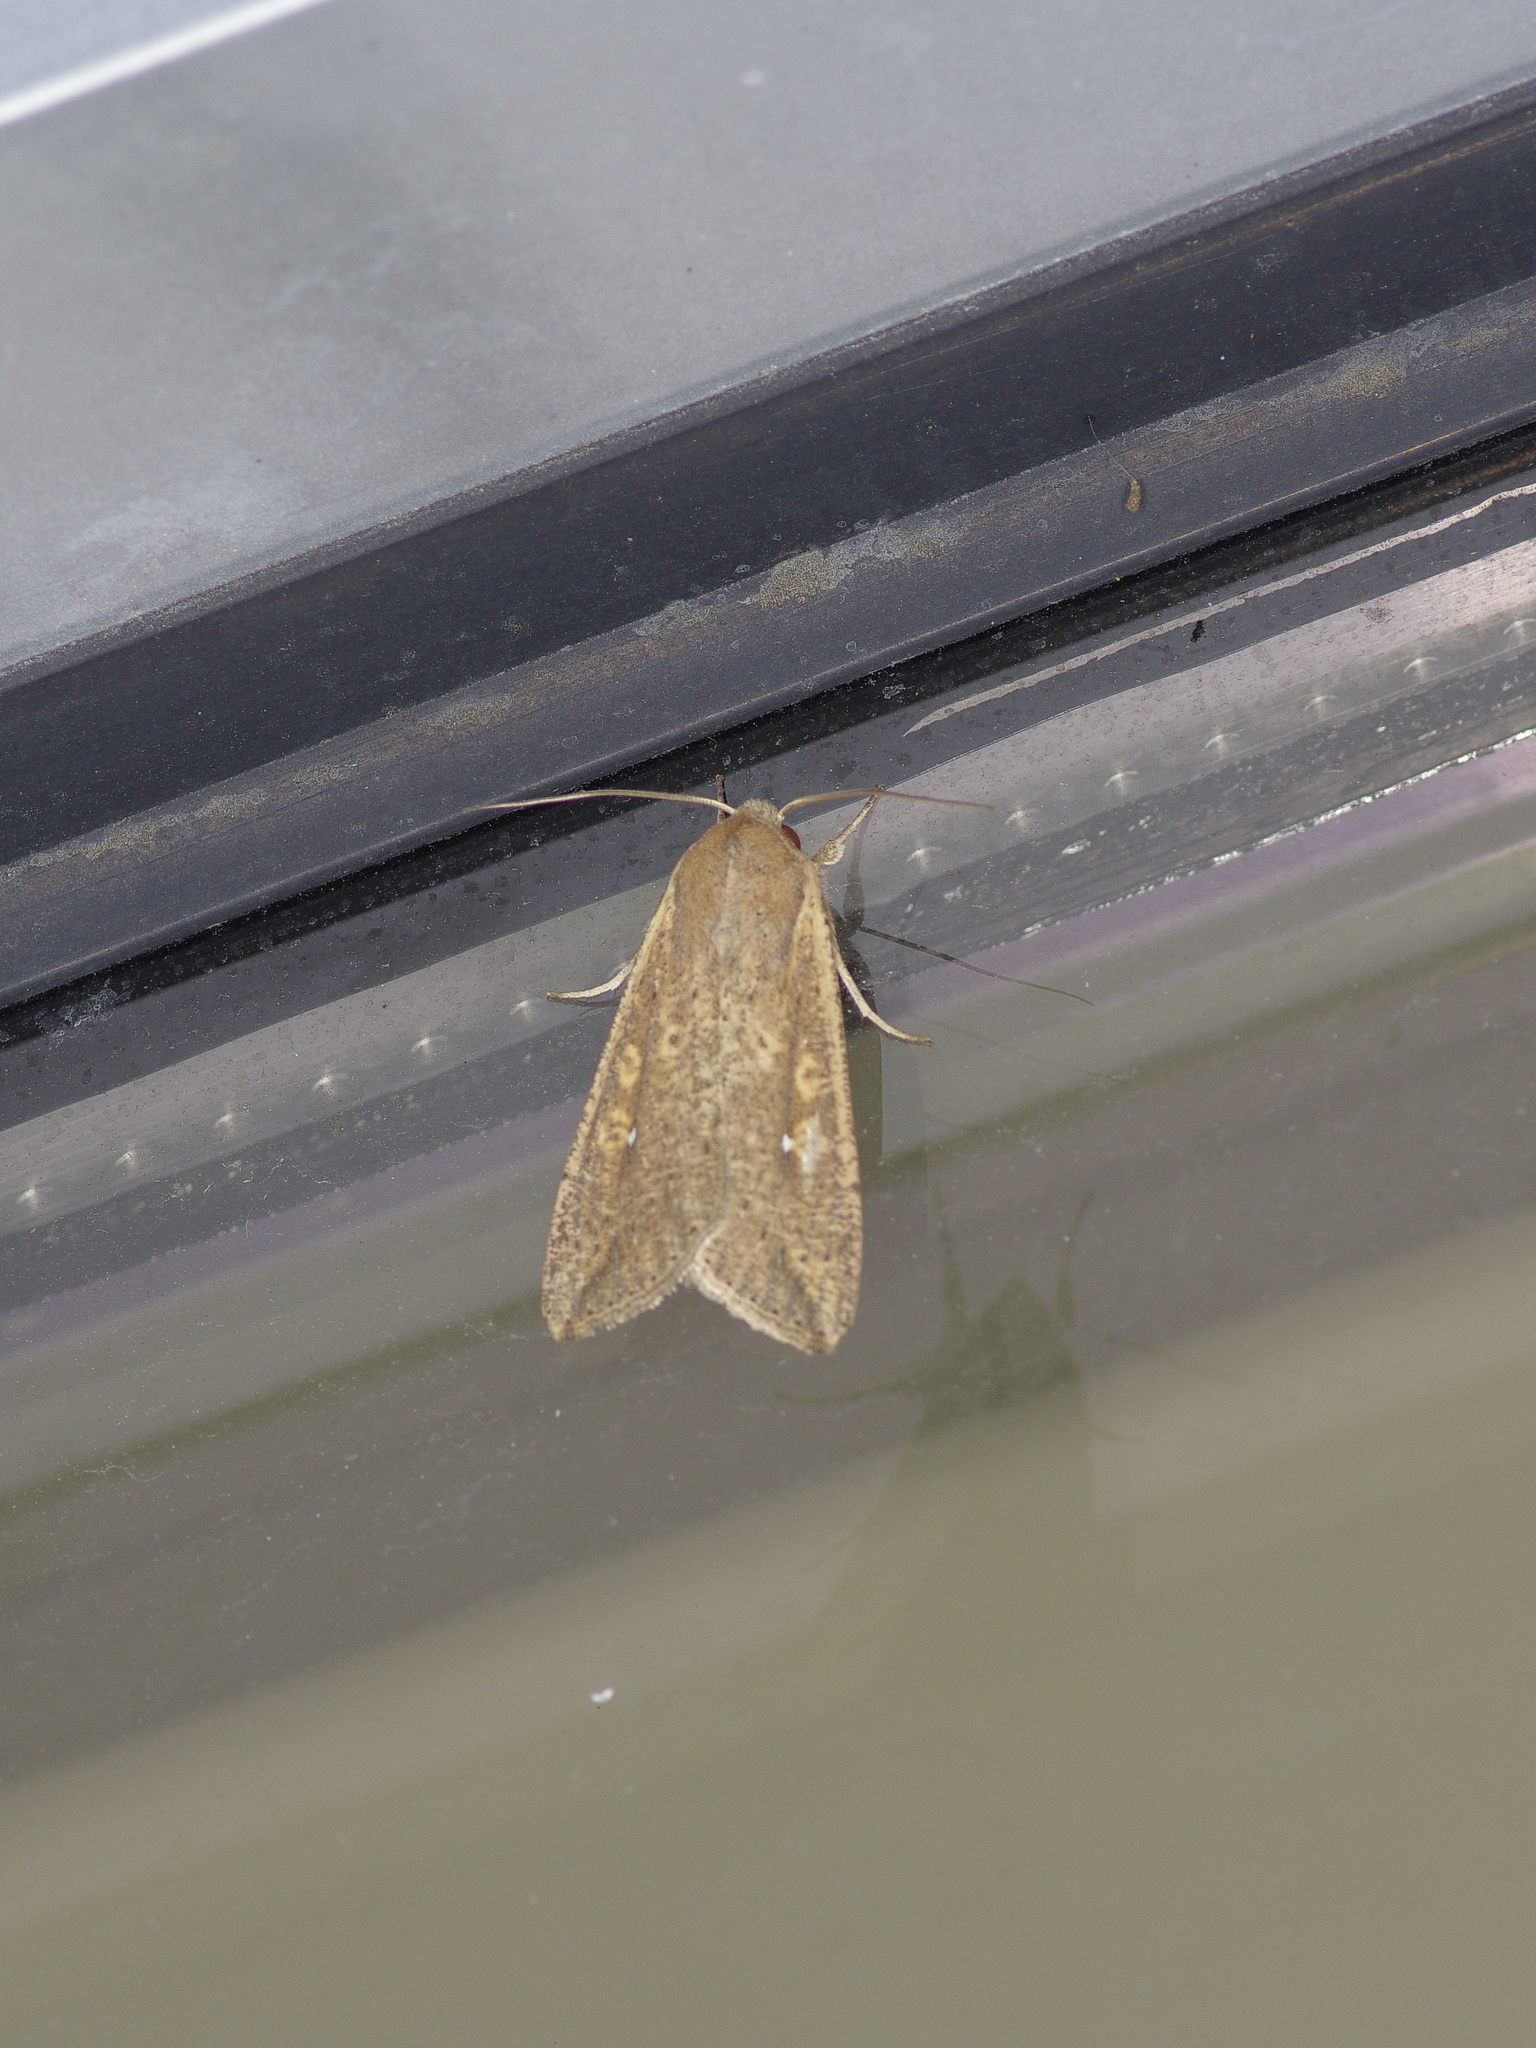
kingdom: Animalia
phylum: Arthropoda
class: Insecta
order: Lepidoptera
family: Noctuidae
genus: Mythimna
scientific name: Mythimna unipuncta
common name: White-speck
